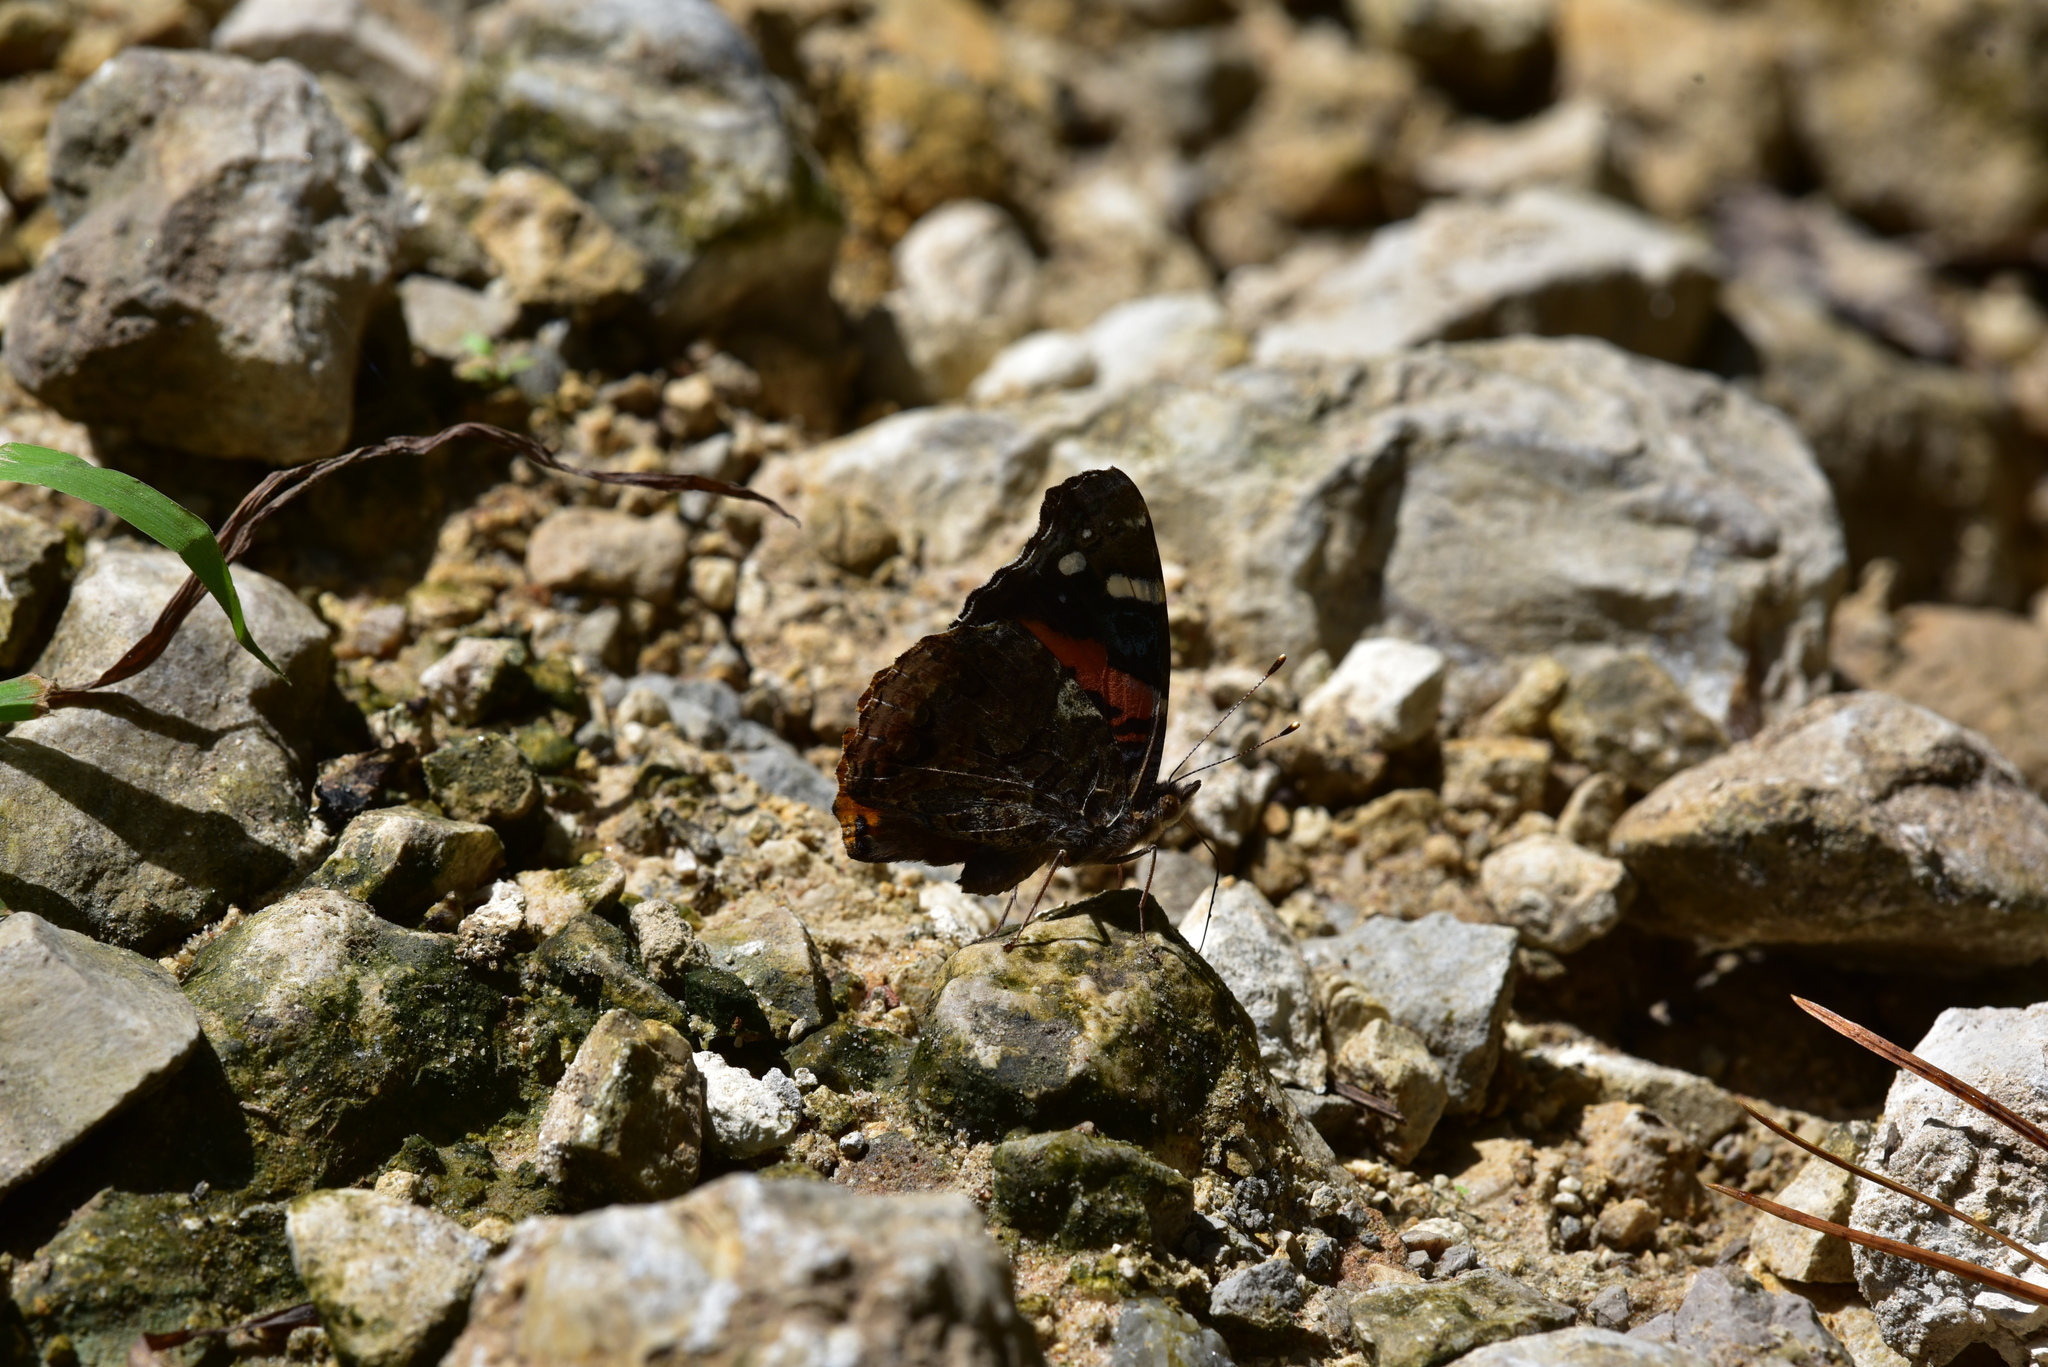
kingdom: Animalia
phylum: Arthropoda
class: Insecta
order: Lepidoptera
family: Nymphalidae
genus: Vanessa
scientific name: Vanessa atalanta
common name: Red admiral
